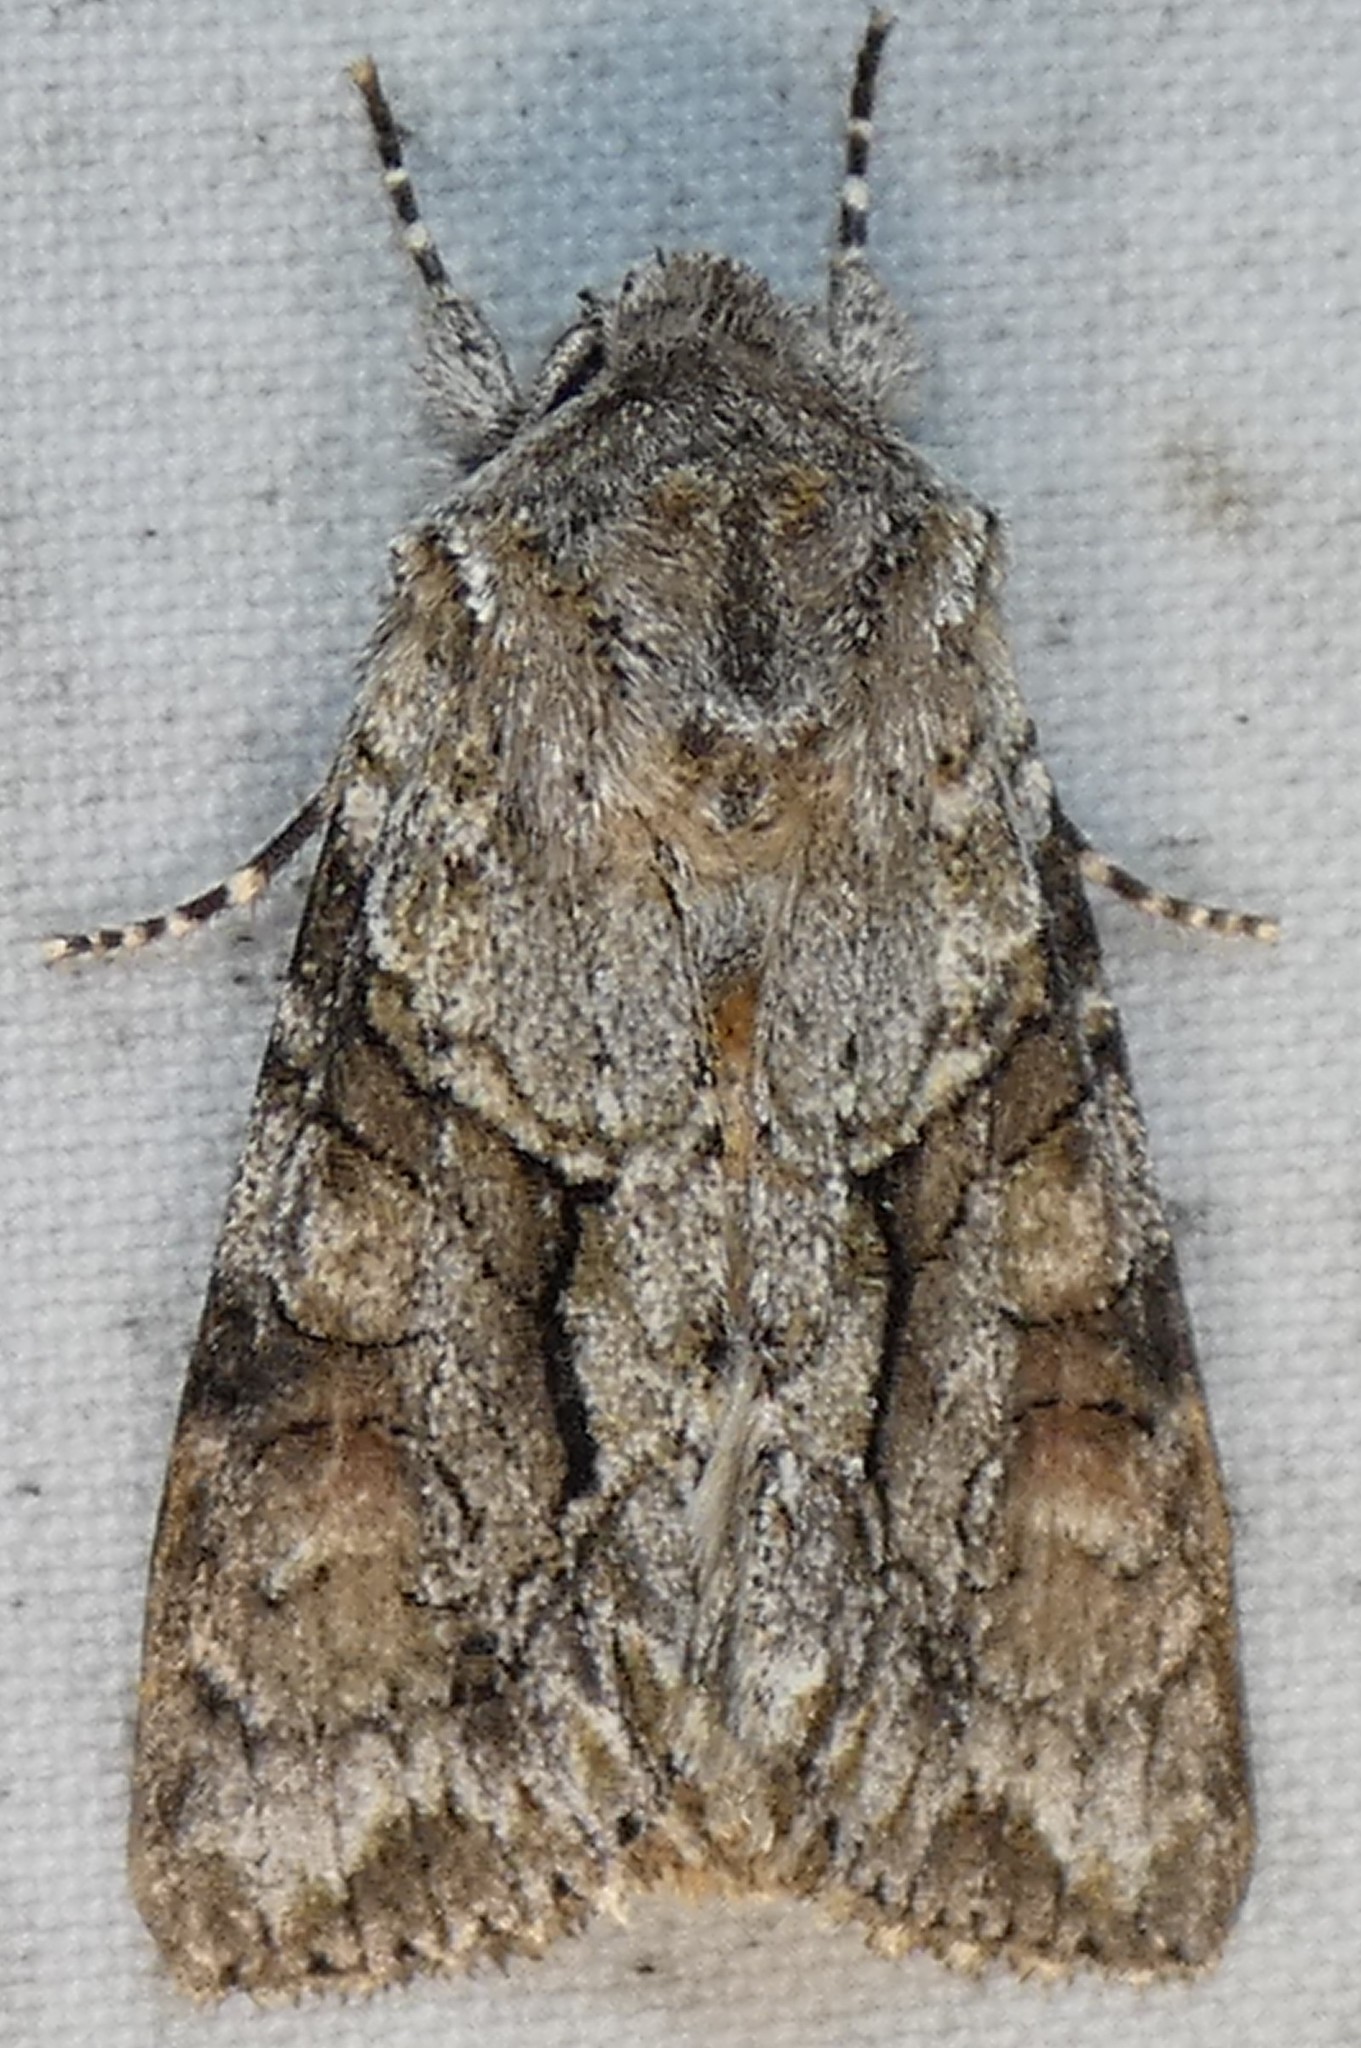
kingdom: Animalia
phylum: Arthropoda
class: Insecta
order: Lepidoptera
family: Noctuidae
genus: Achatia
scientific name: Achatia distincta
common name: Distinct quaker
